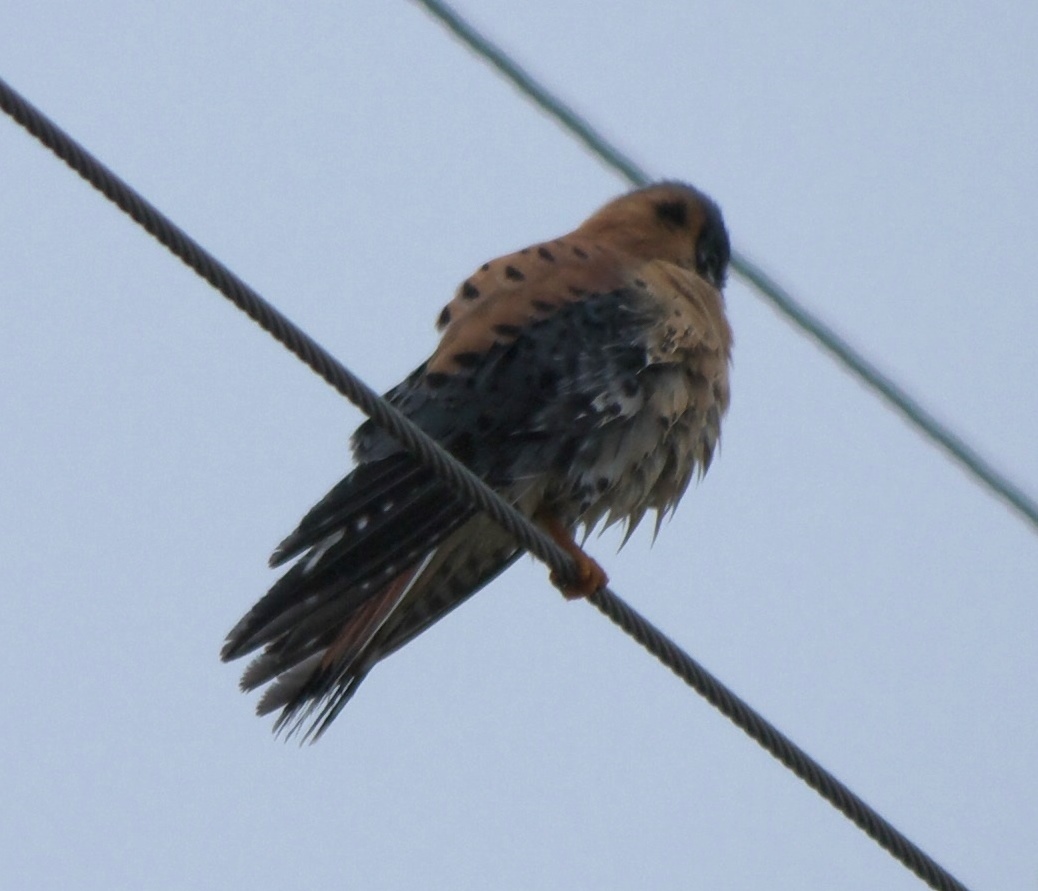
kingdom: Animalia
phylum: Chordata
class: Aves
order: Falconiformes
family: Falconidae
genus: Falco
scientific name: Falco sparverius
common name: American kestrel
